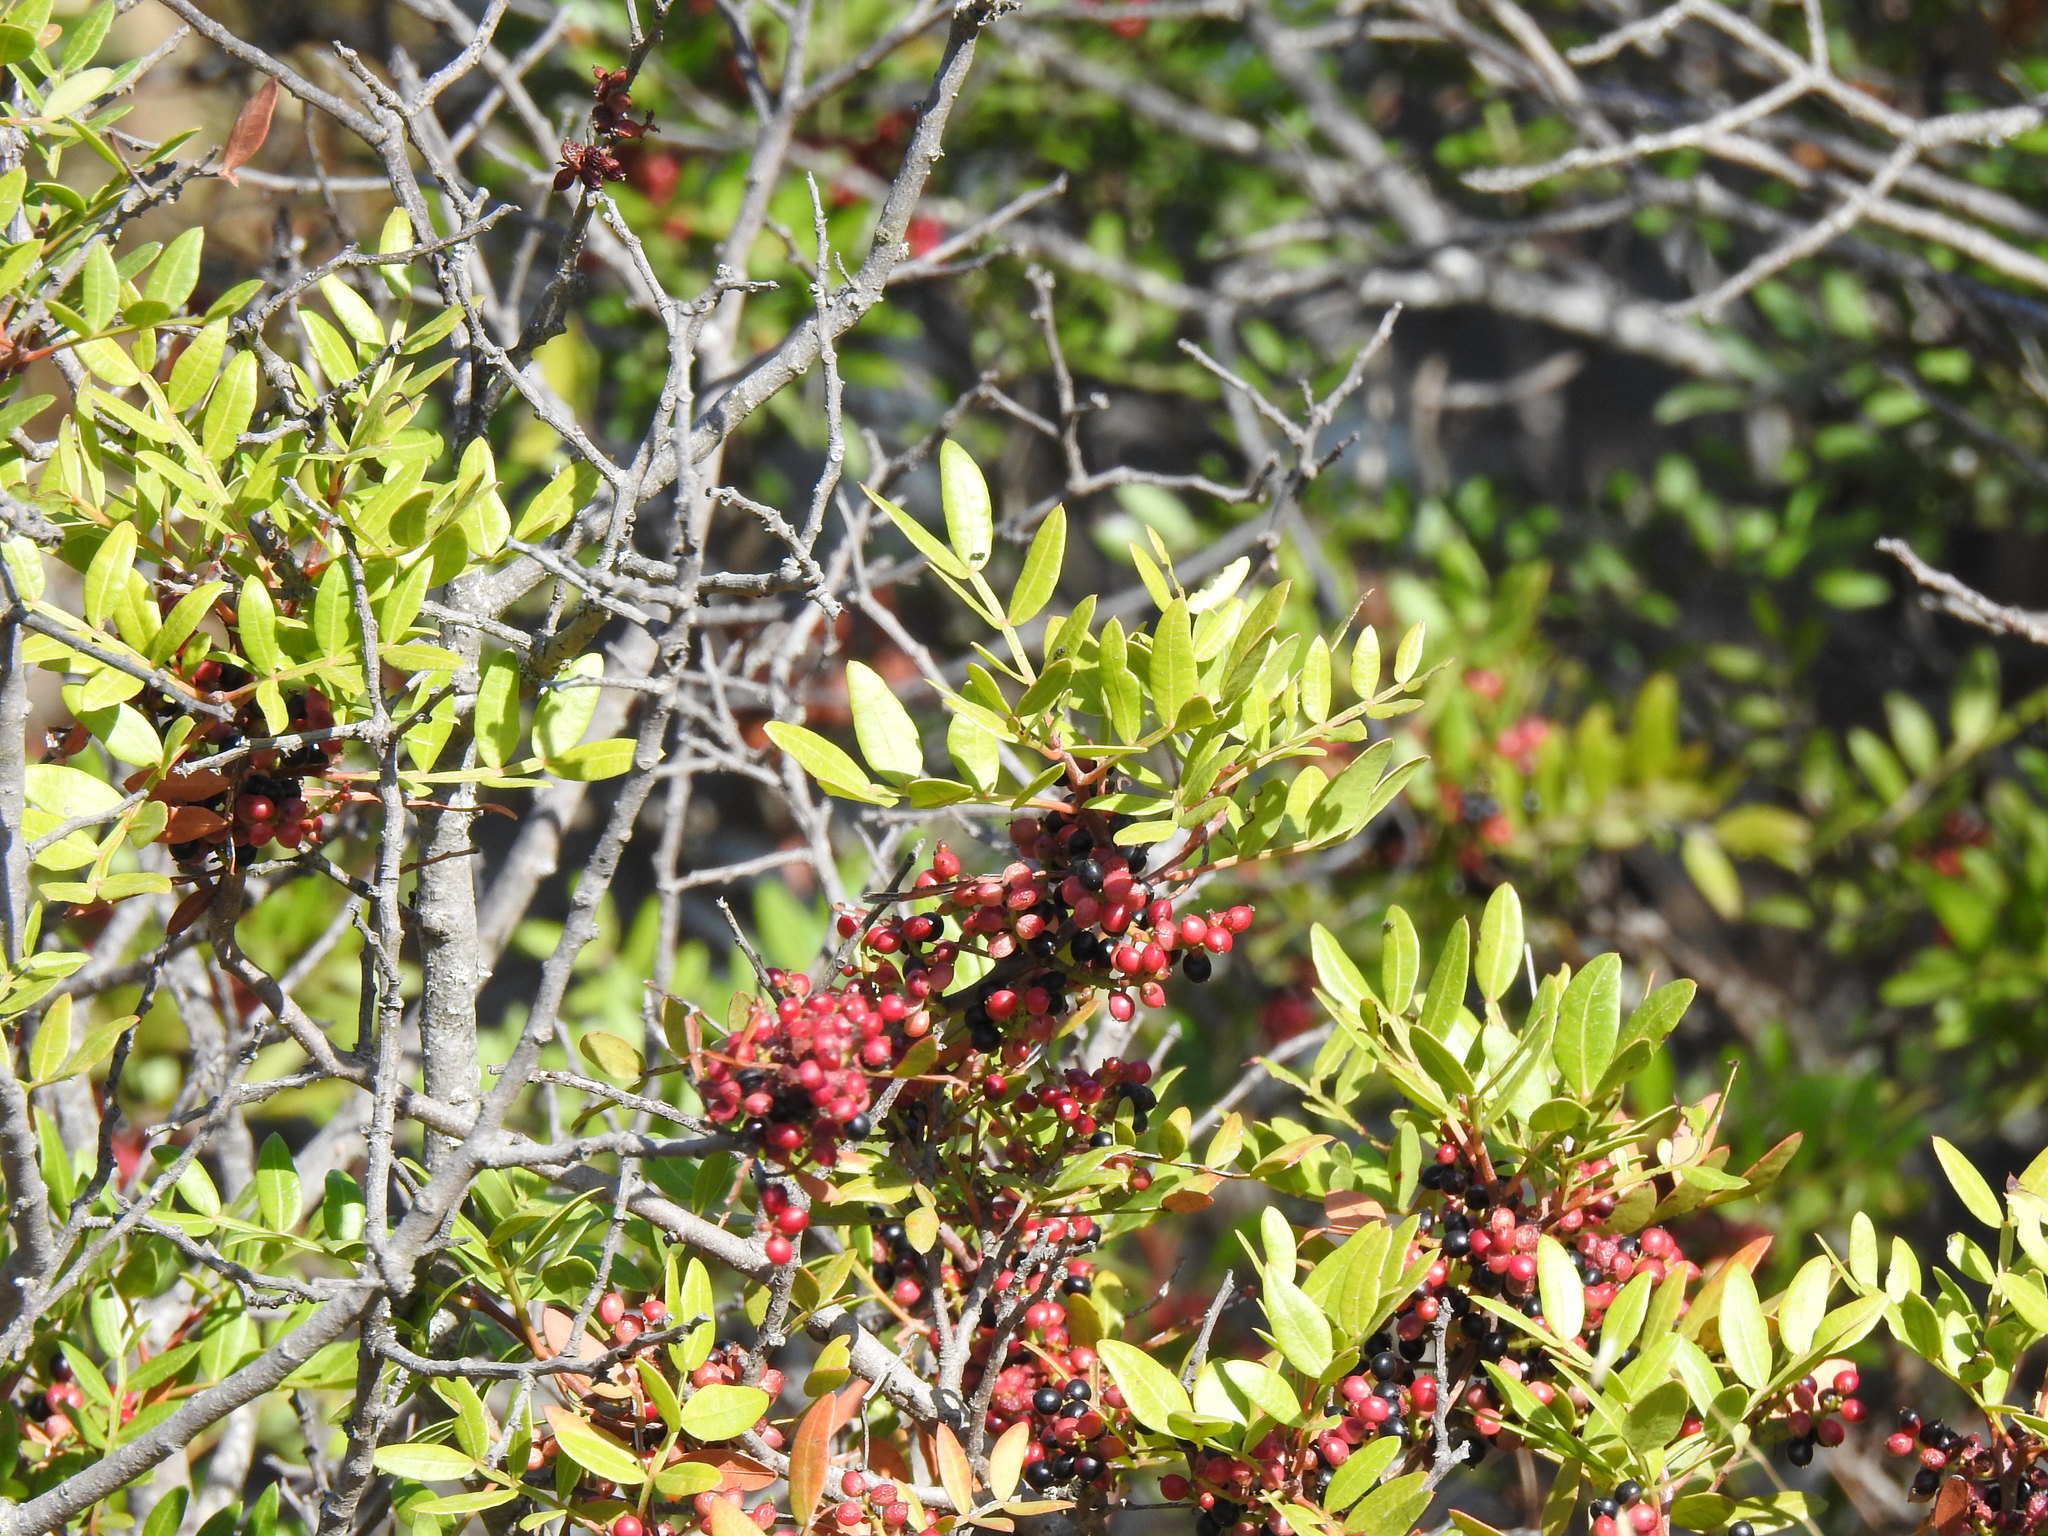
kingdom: Plantae
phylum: Tracheophyta
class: Magnoliopsida
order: Sapindales
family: Anacardiaceae
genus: Pistacia
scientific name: Pistacia lentiscus
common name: Lentisk
